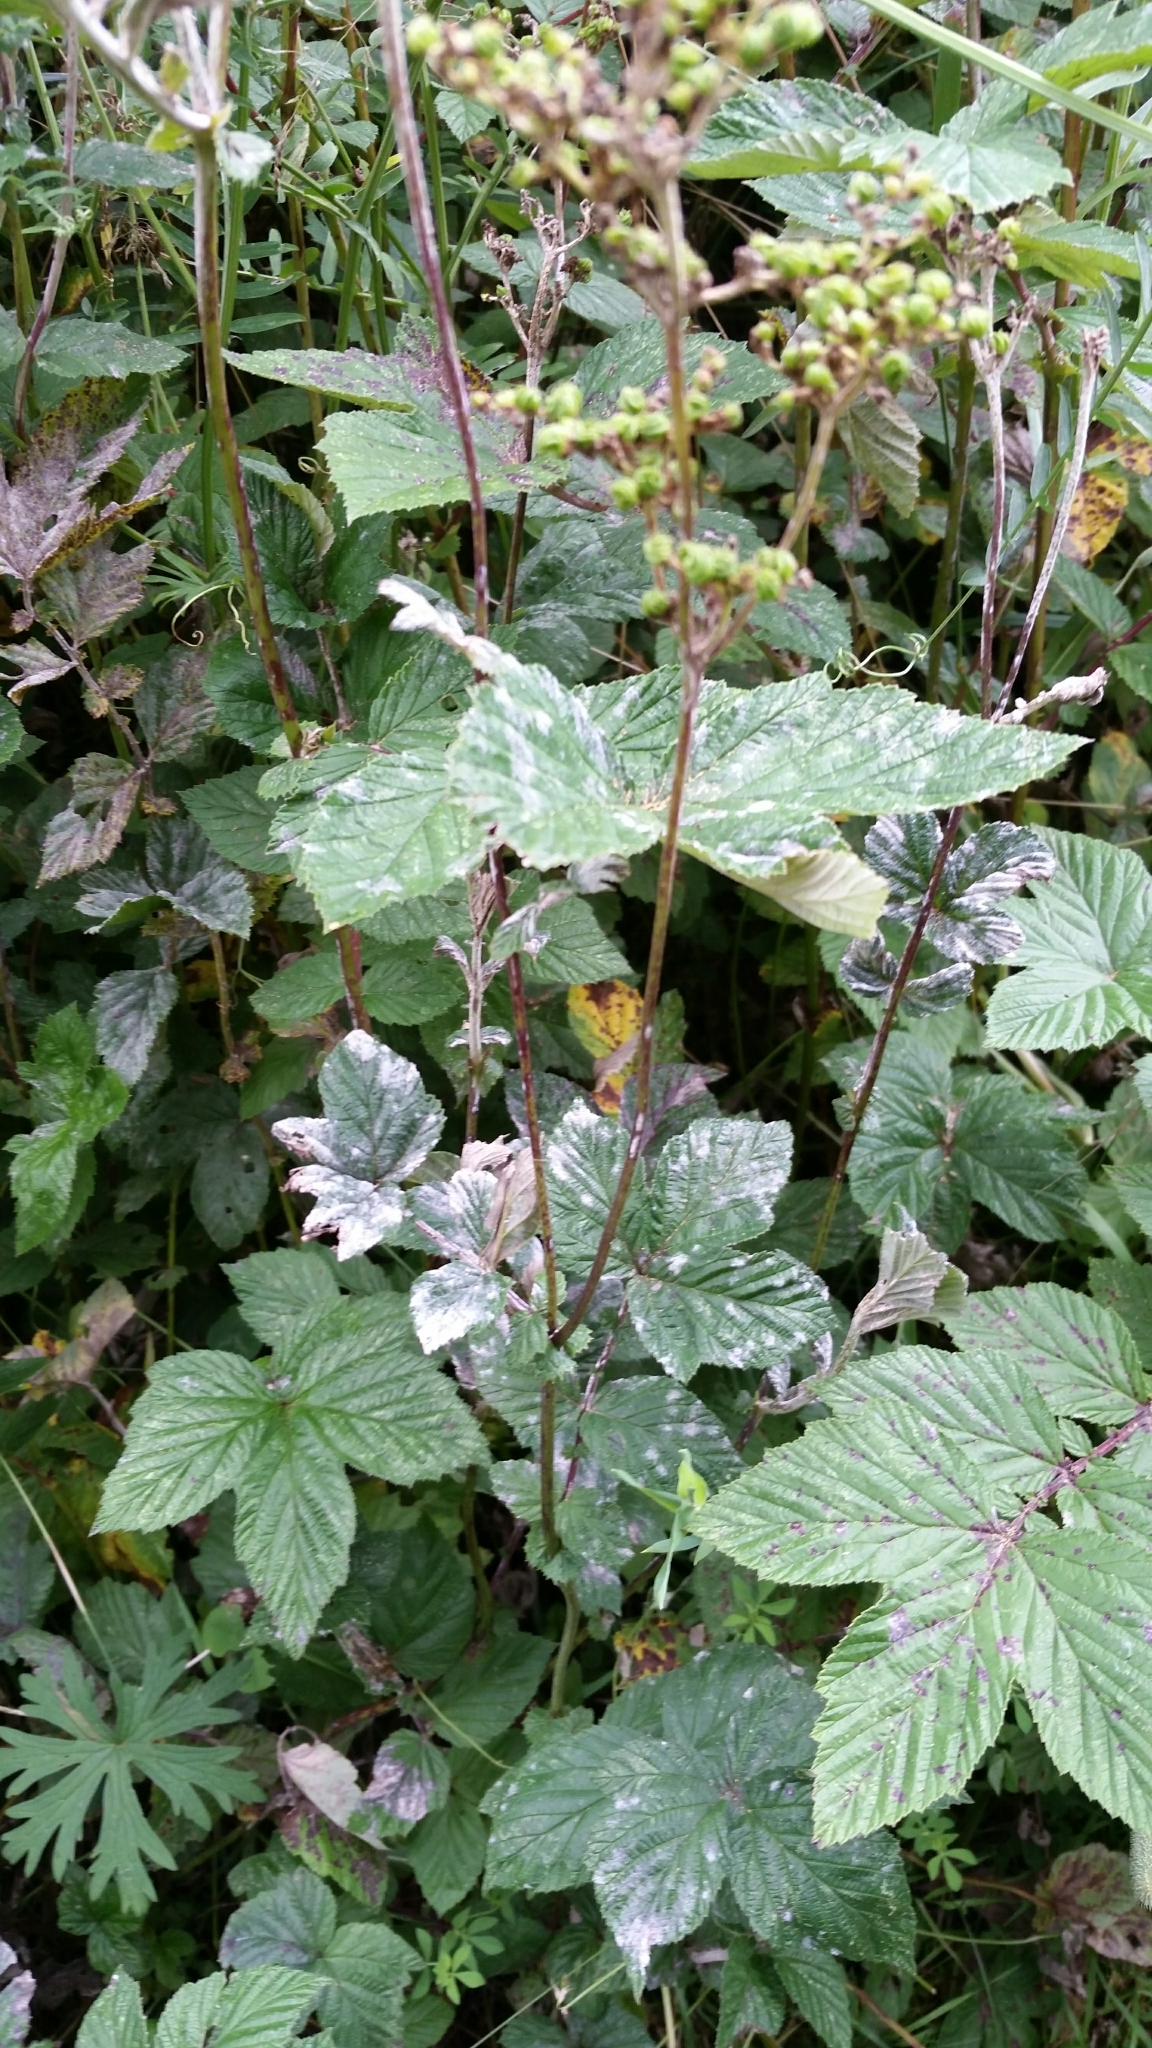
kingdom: Fungi
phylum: Ascomycota
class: Leotiomycetes
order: Helotiales
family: Erysiphaceae
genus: Podosphaera
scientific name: Podosphaera filipendulae
